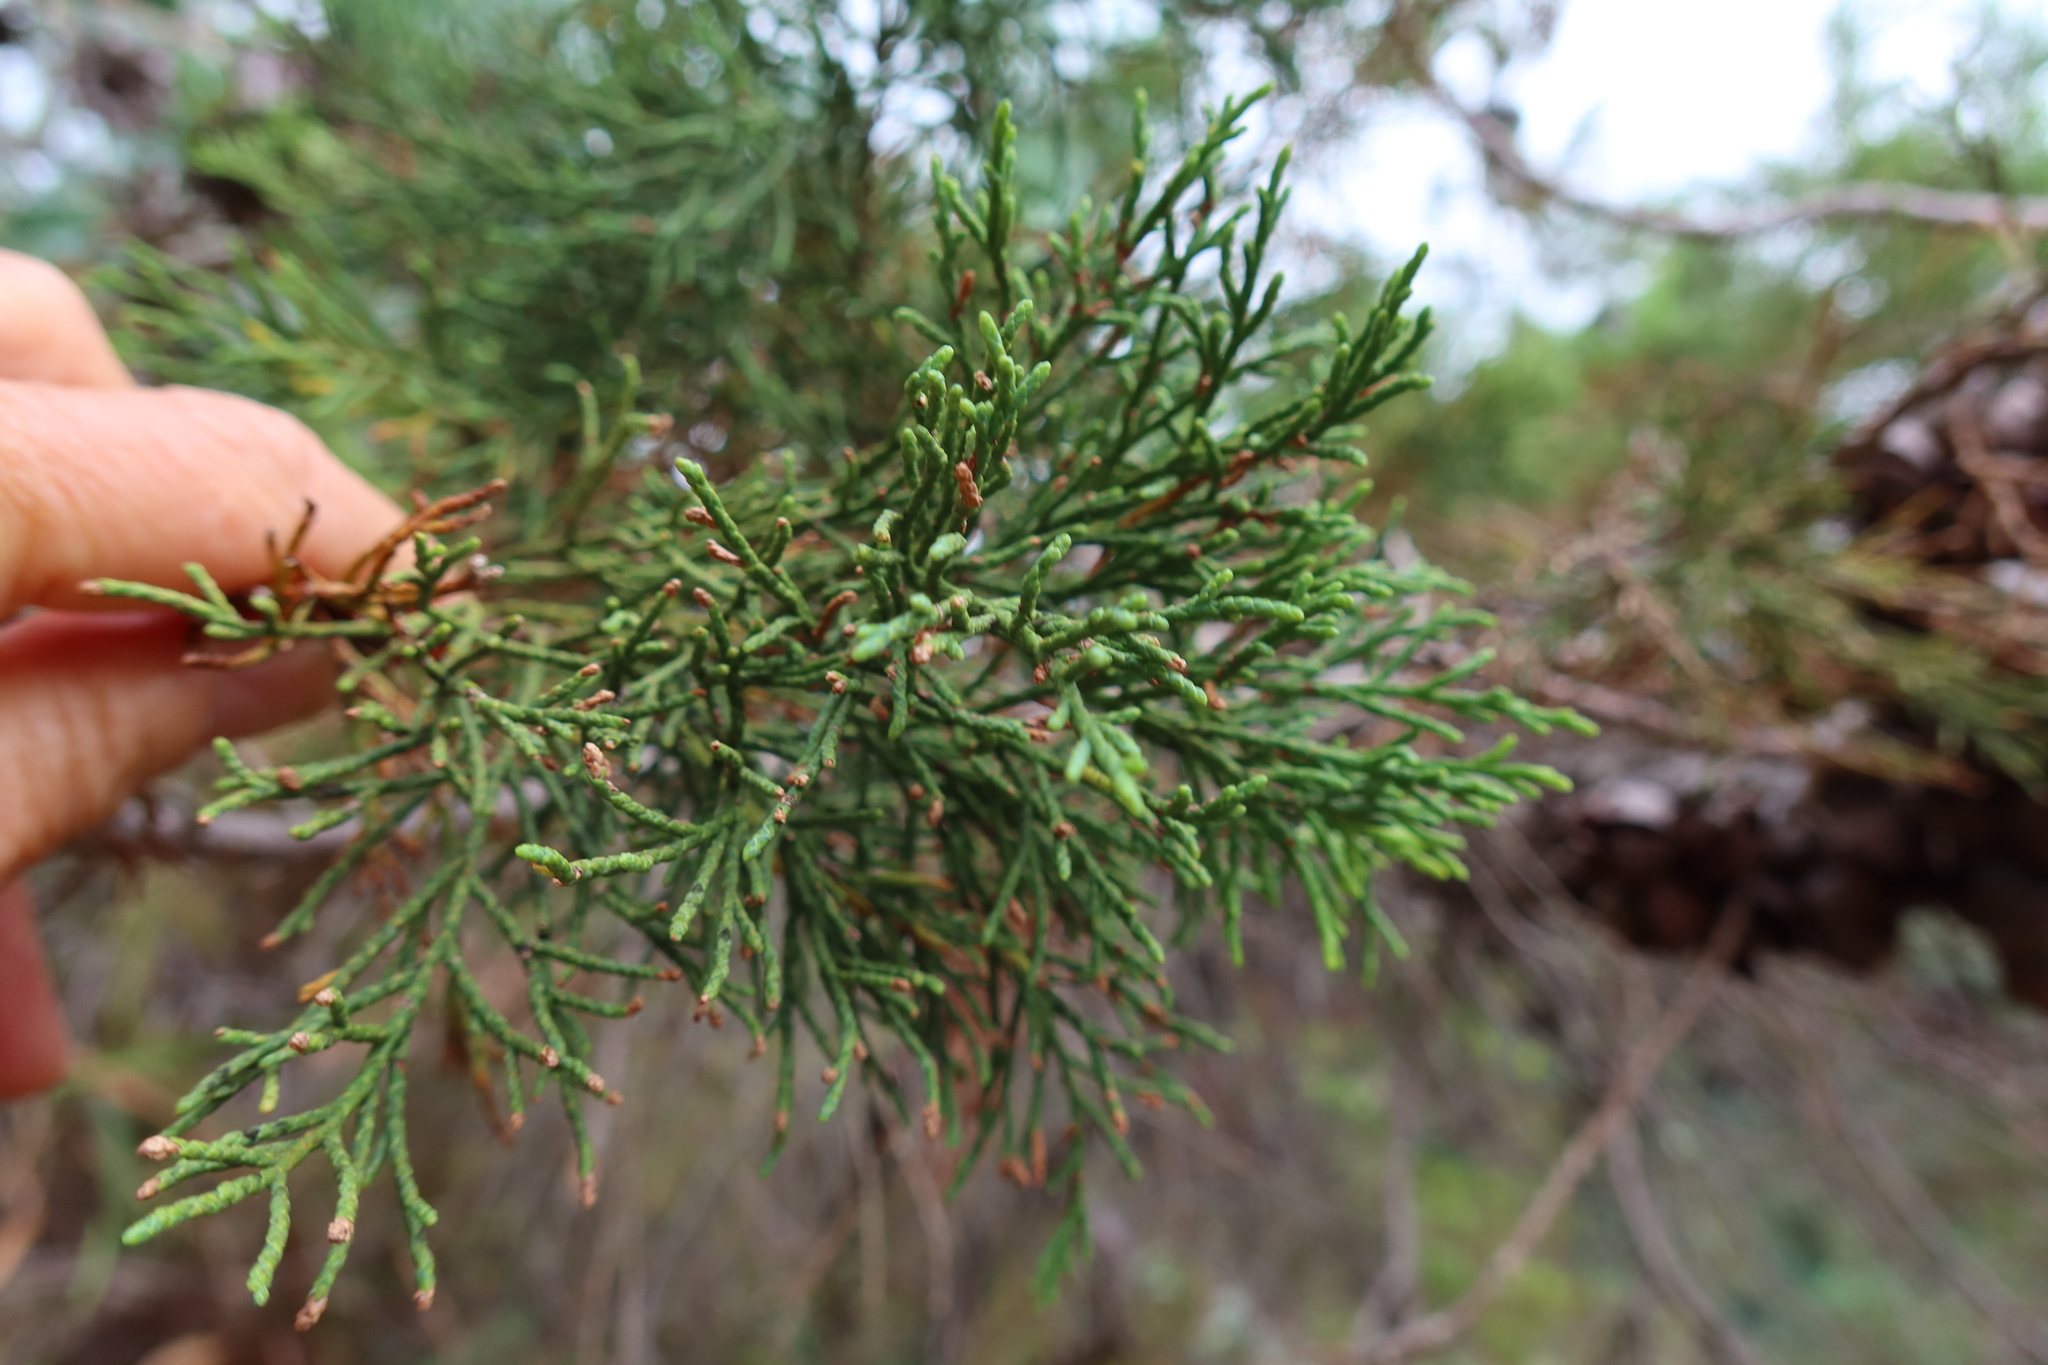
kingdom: Plantae
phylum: Tracheophyta
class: Pinopsida
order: Pinales
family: Cupressaceae
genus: Widdringtonia
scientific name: Widdringtonia nodiflora
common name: Cape cypress
